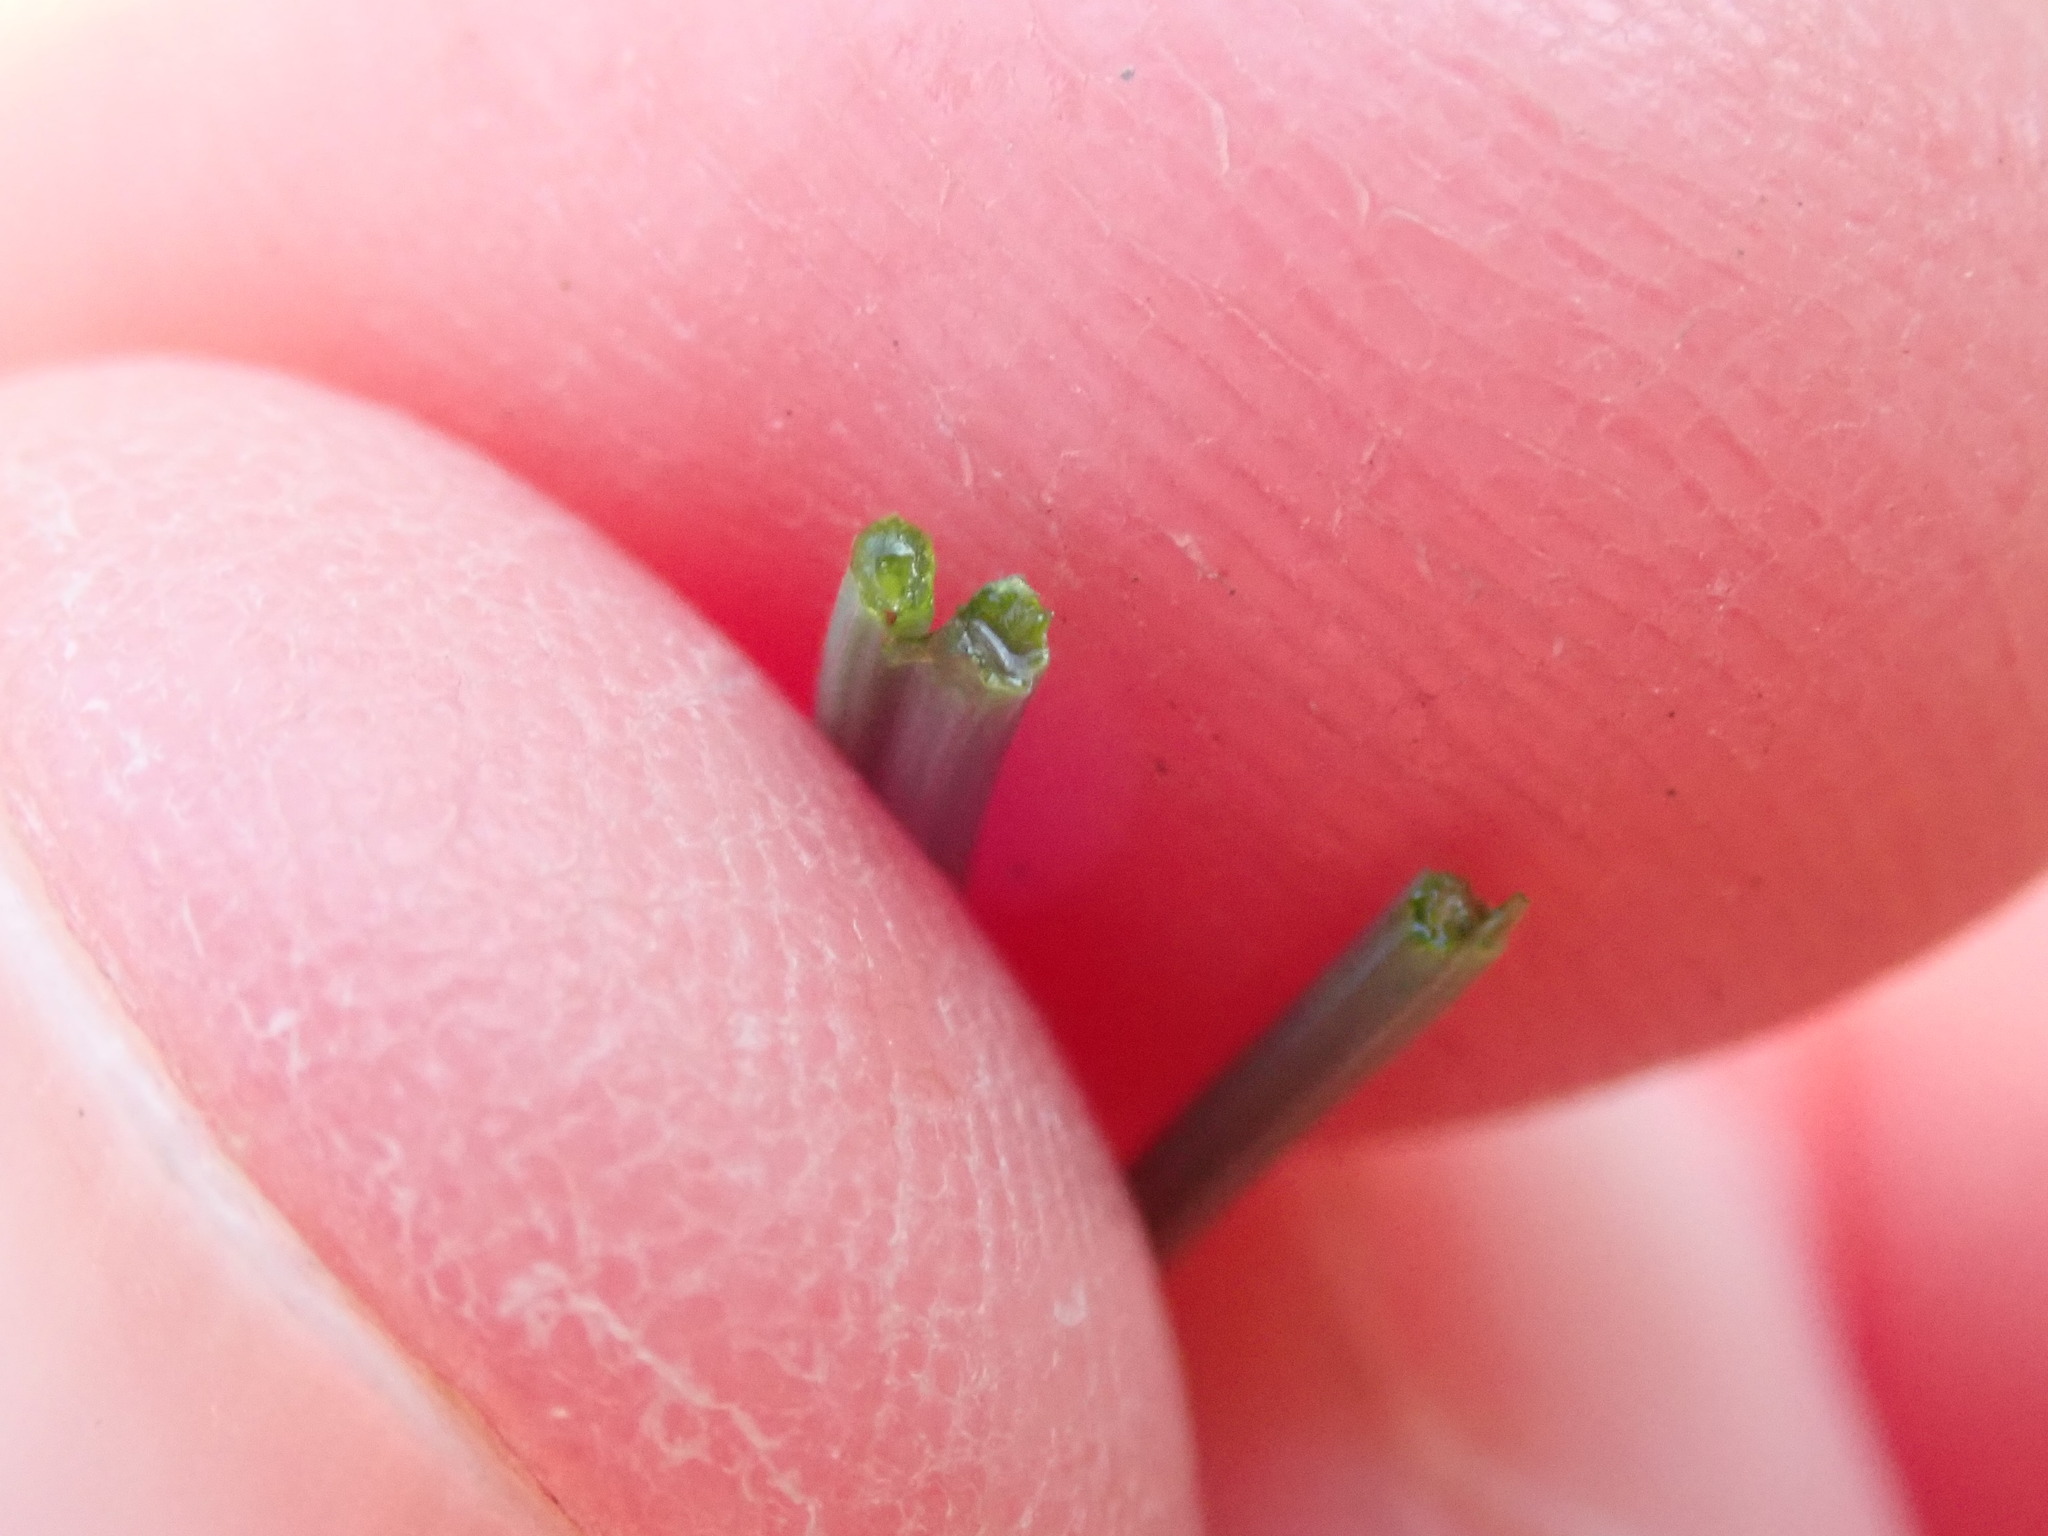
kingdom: Plantae
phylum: Tracheophyta
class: Liliopsida
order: Asparagales
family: Amaryllidaceae
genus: Allium
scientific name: Allium vineale
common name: Crow garlic
